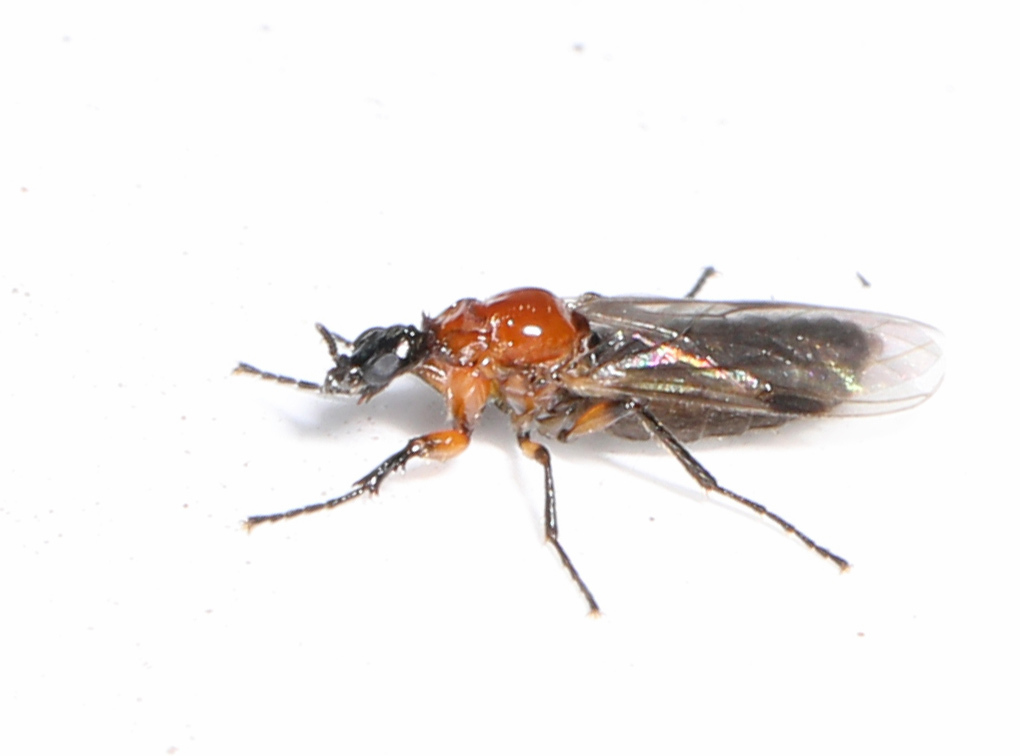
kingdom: Animalia
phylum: Arthropoda
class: Insecta
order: Diptera
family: Bibionidae
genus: Dilophus
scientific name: Dilophus tibialis
